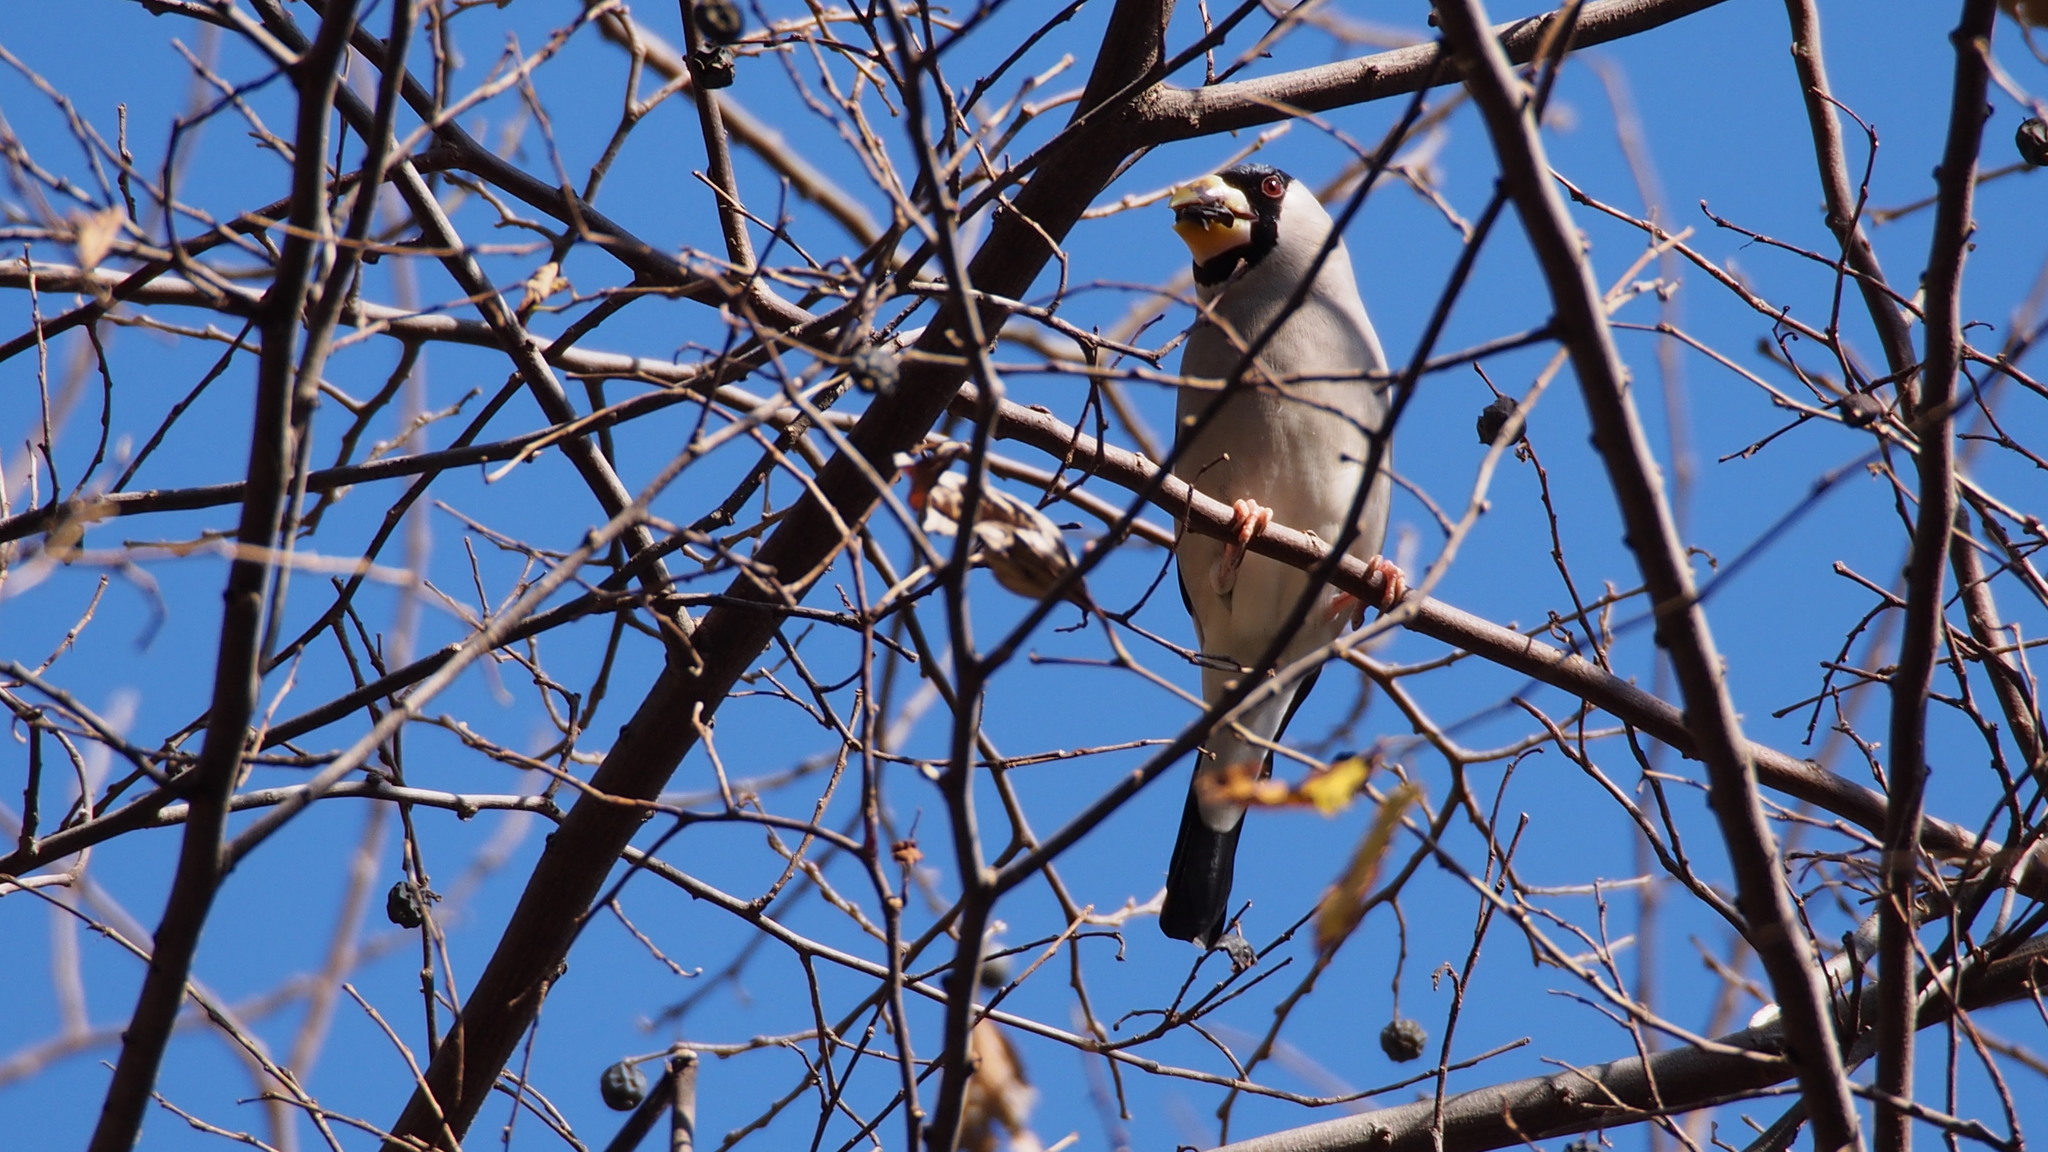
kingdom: Animalia
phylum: Chordata
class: Aves
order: Passeriformes
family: Fringillidae
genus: Eophona
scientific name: Eophona personata
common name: Japanese grosbeak
